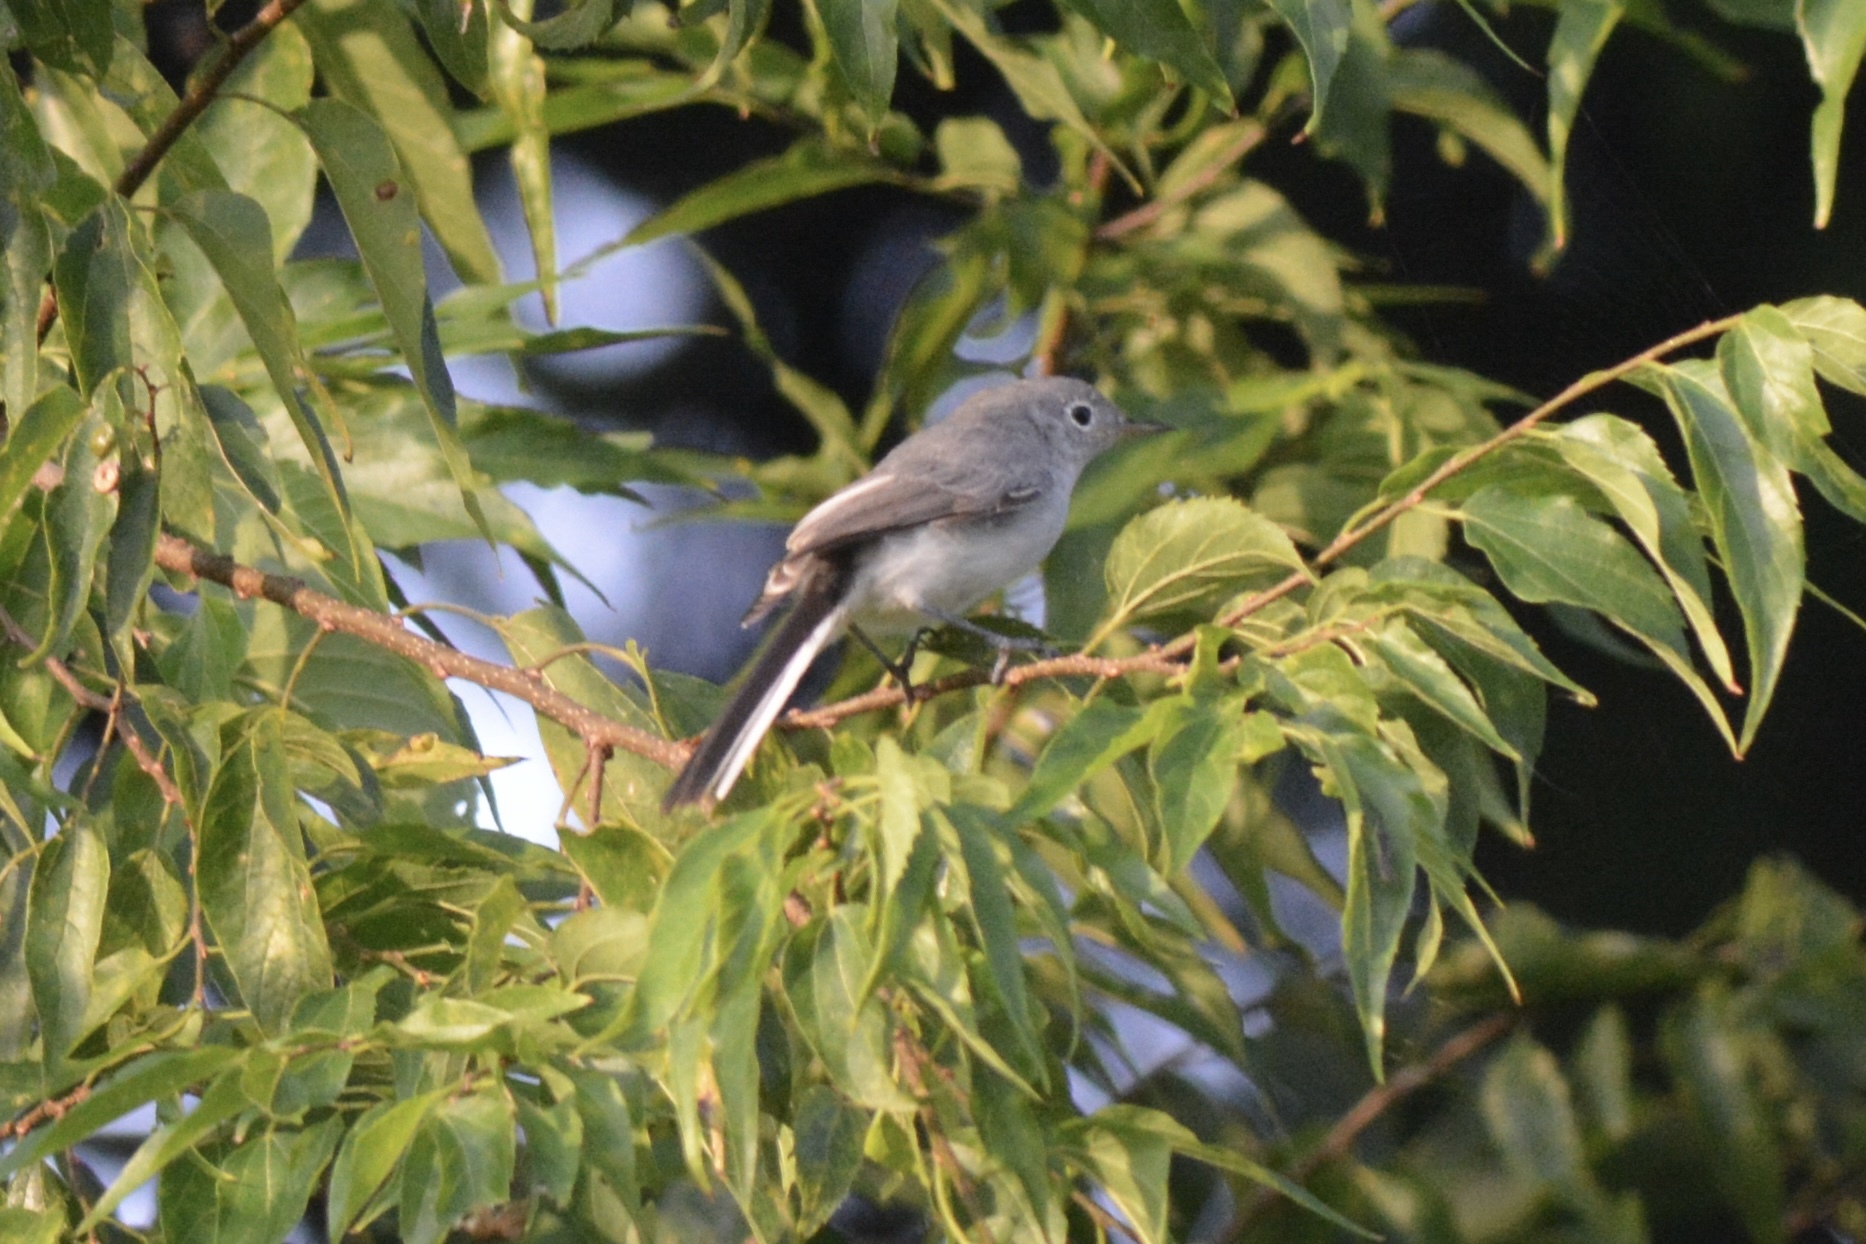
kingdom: Animalia
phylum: Chordata
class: Aves
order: Passeriformes
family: Polioptilidae
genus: Polioptila
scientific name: Polioptila caerulea
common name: Blue-gray gnatcatcher
